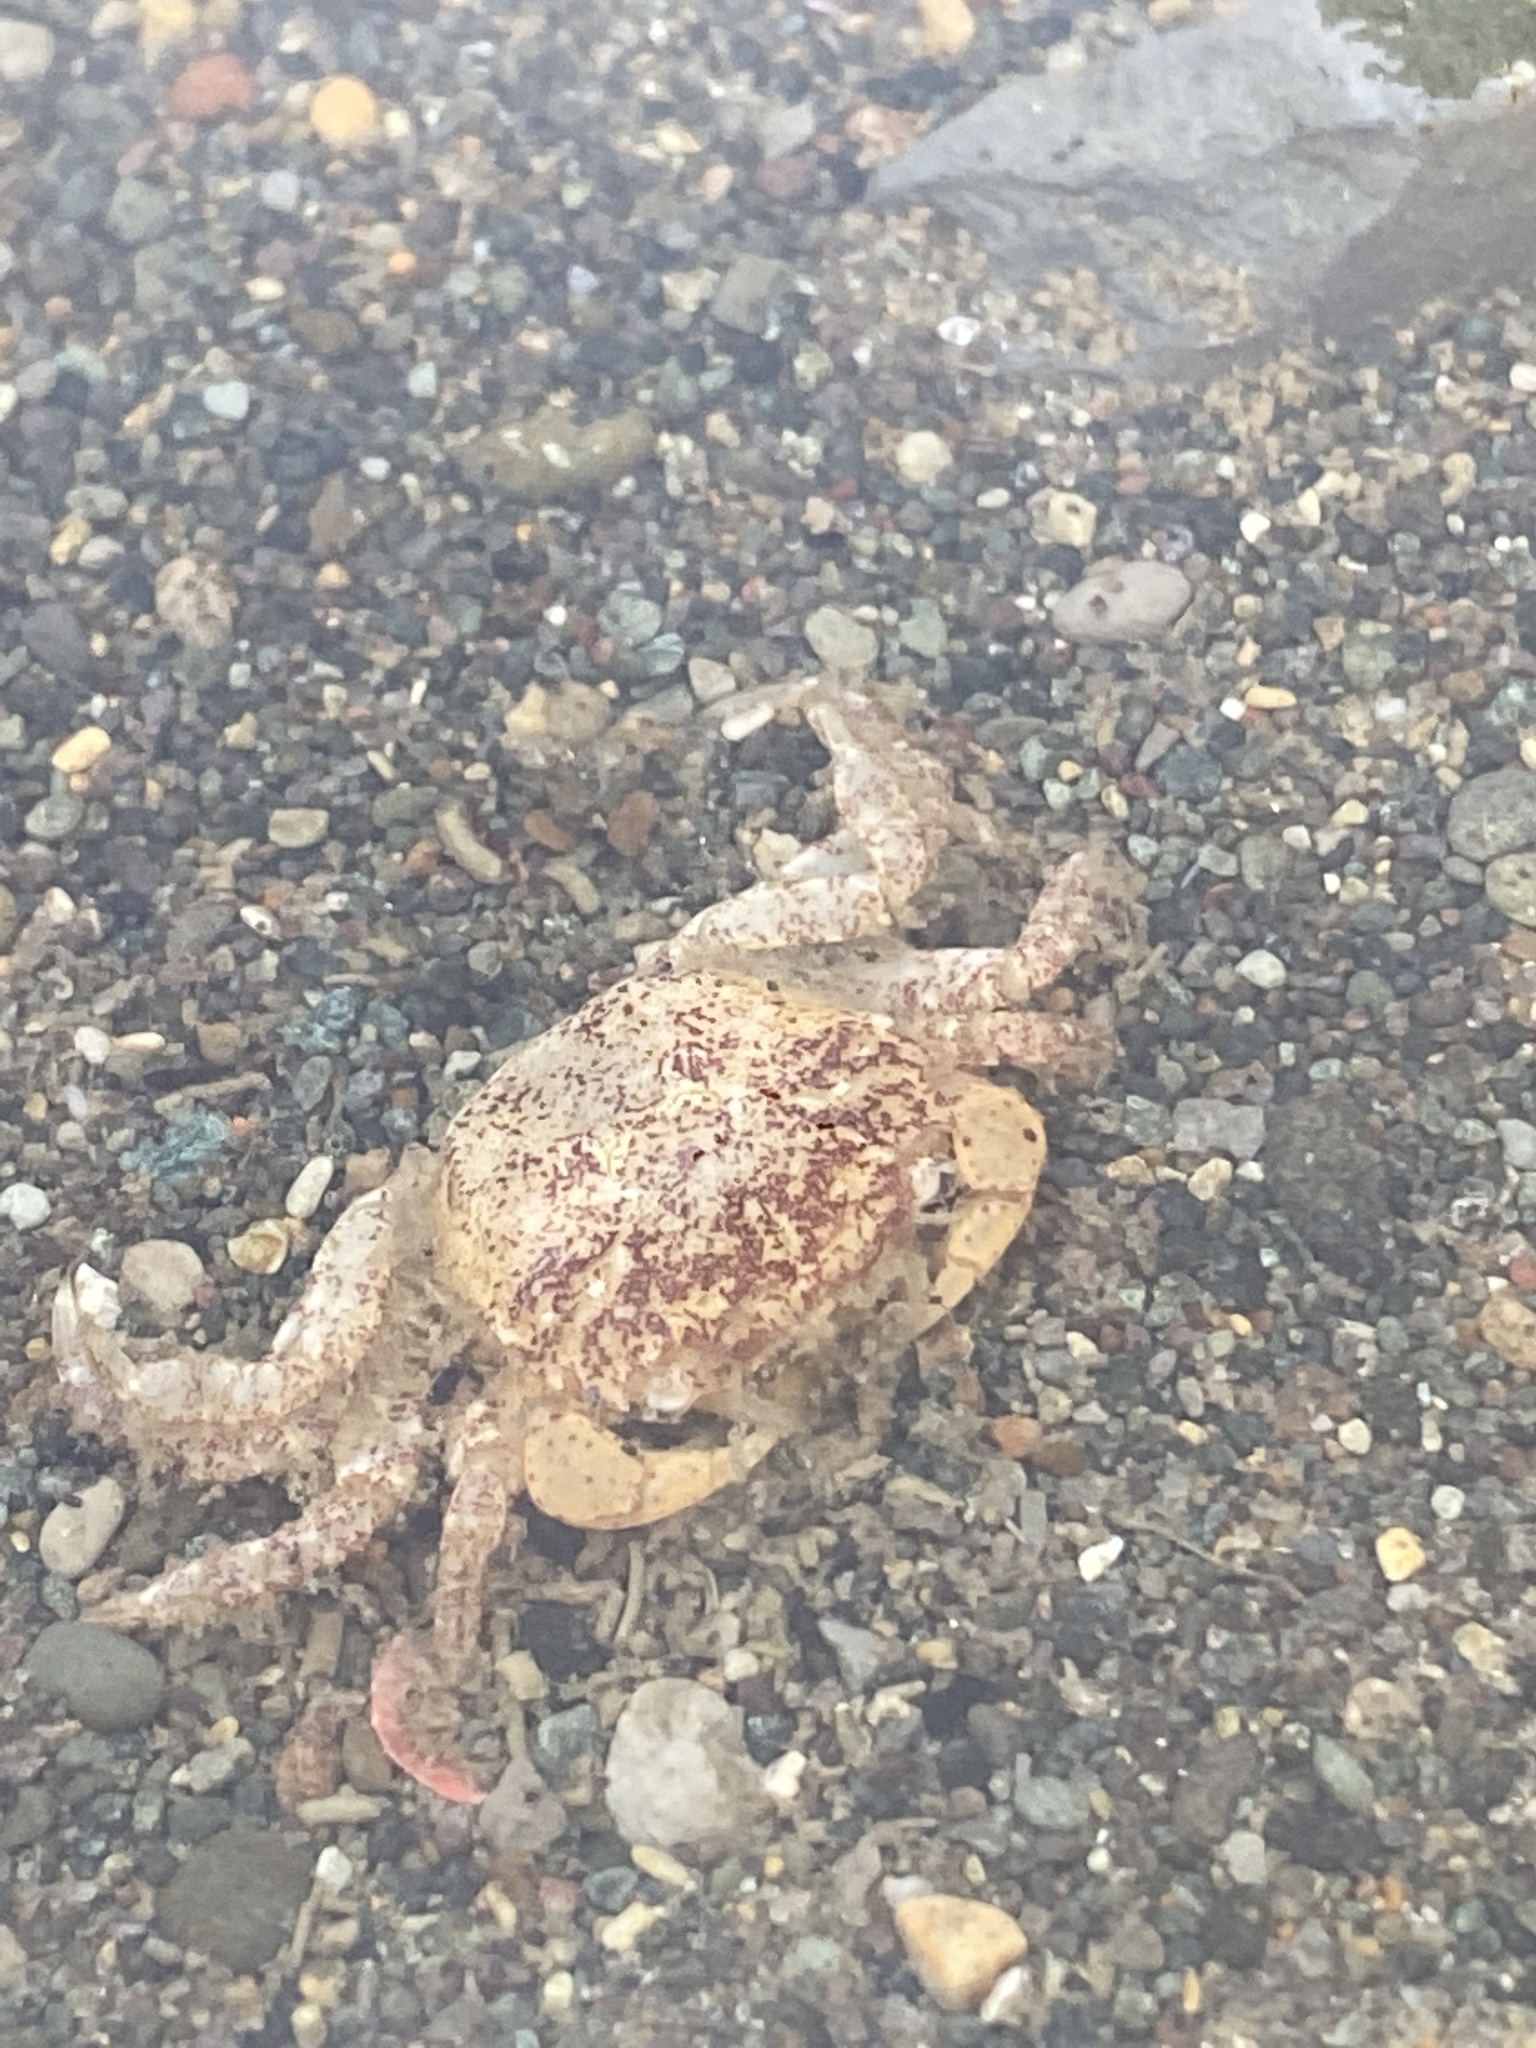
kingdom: Animalia
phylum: Arthropoda
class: Malacostraca
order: Decapoda
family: Varunidae
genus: Hemigrapsus
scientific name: Hemigrapsus oregonensis
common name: Yellow shore crab
